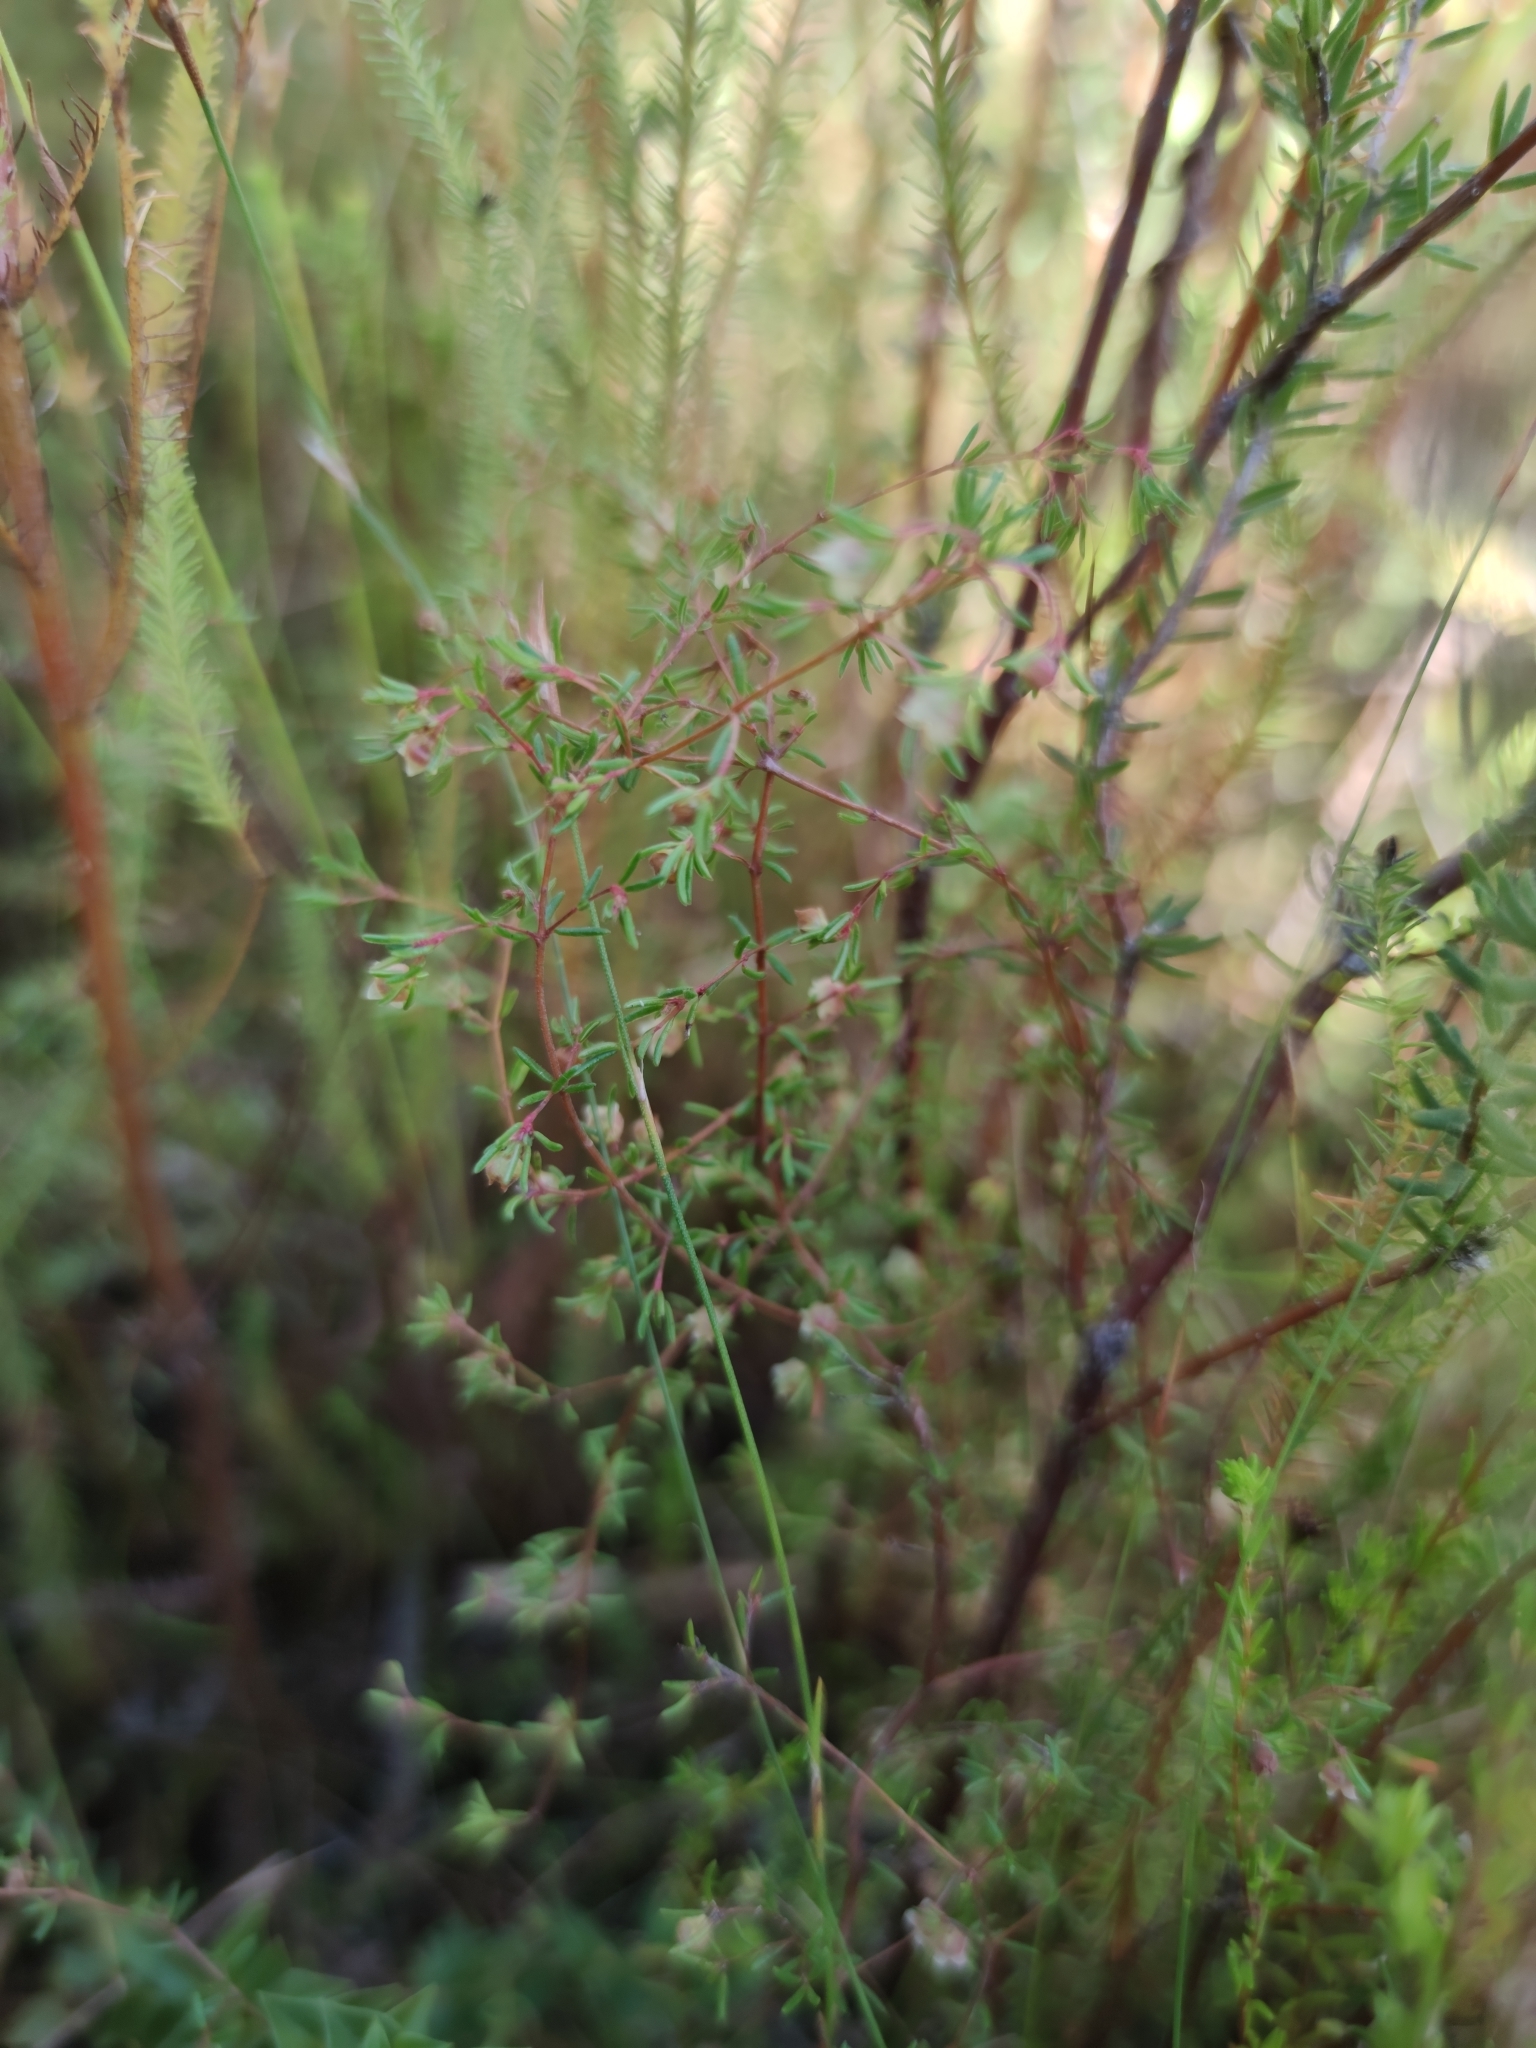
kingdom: Plantae
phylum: Tracheophyta
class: Magnoliopsida
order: Ericales
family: Ericaceae
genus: Erica
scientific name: Erica salteri
